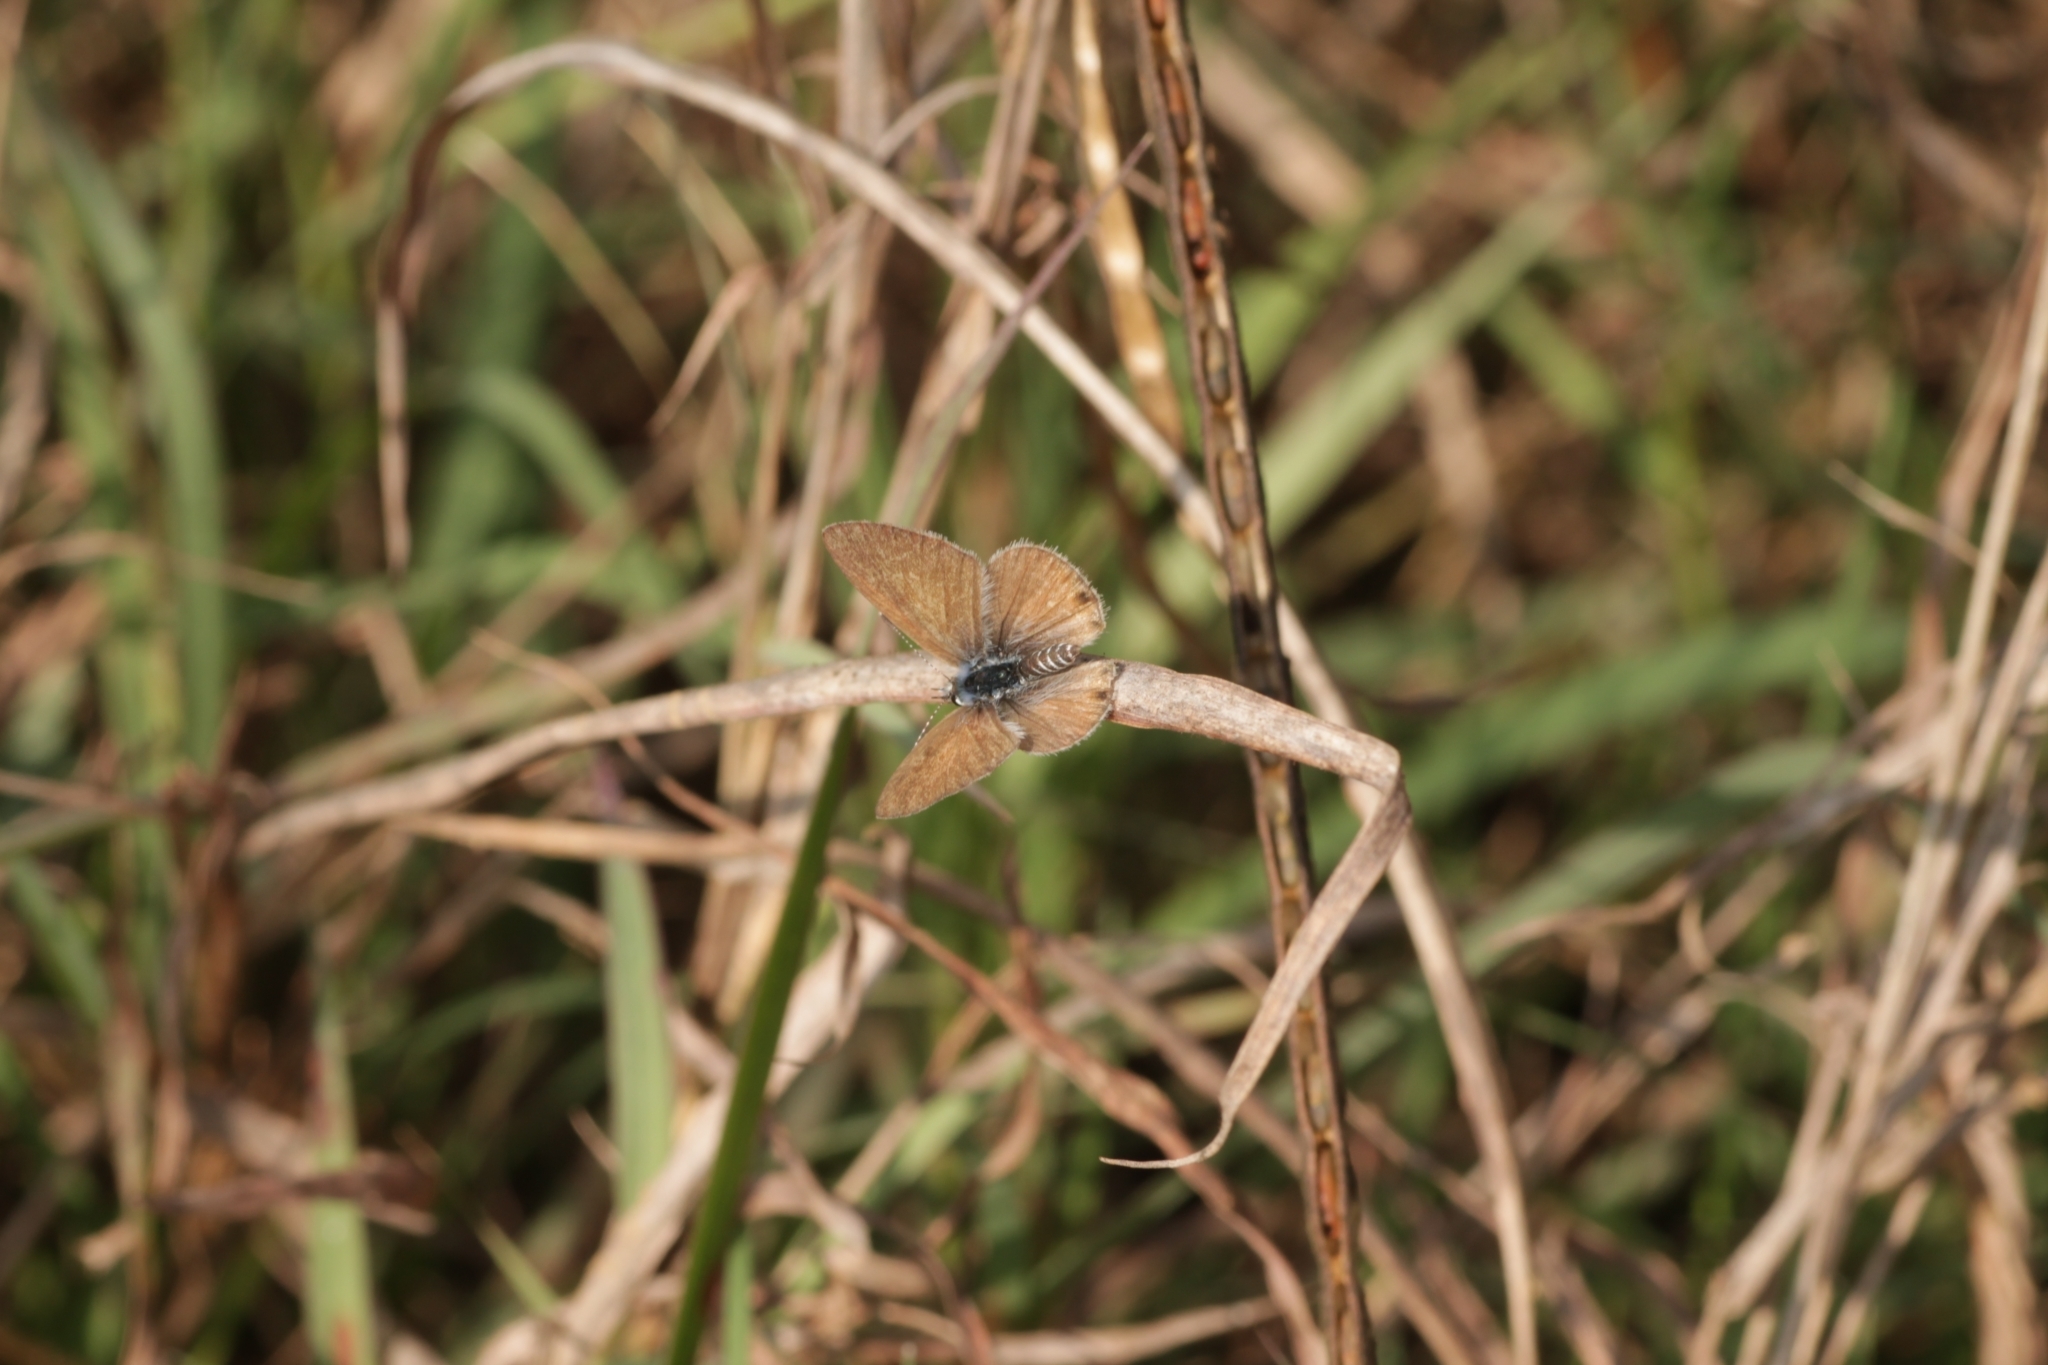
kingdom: Animalia
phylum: Arthropoda
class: Insecta
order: Lepidoptera
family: Lycaenidae
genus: Azanus
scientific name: Azanus ubaldus
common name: Desert babul blue
